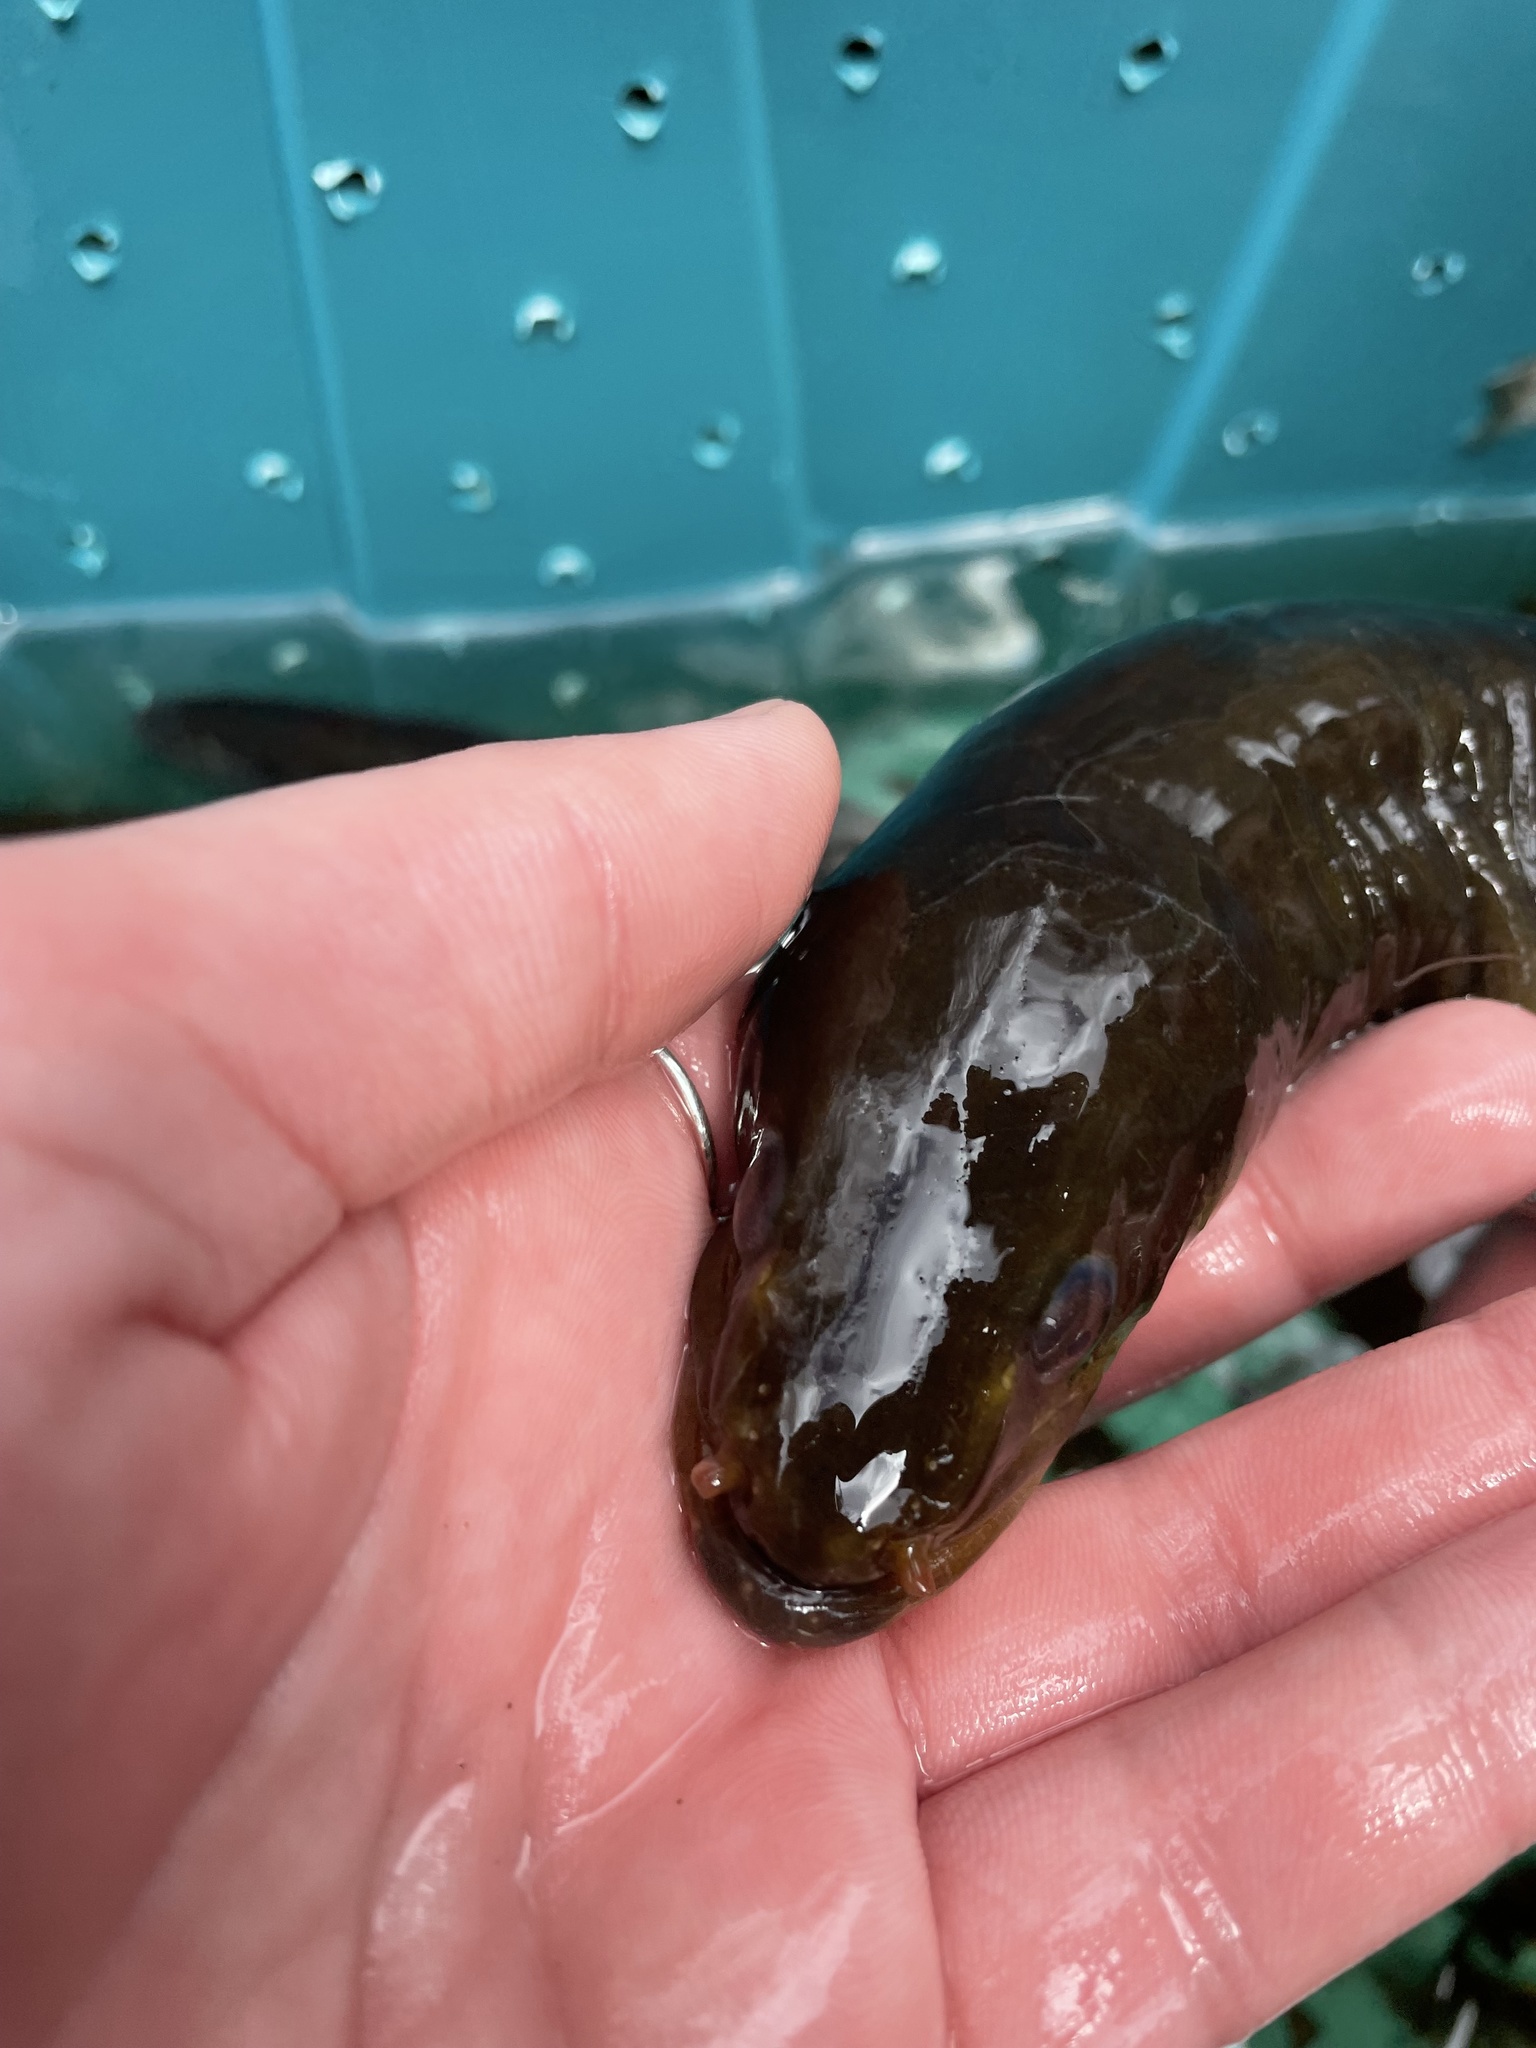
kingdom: Animalia
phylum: Chordata
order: Anguilliformes
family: Anguillidae
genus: Anguilla
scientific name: Anguilla rostrata
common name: American eel
